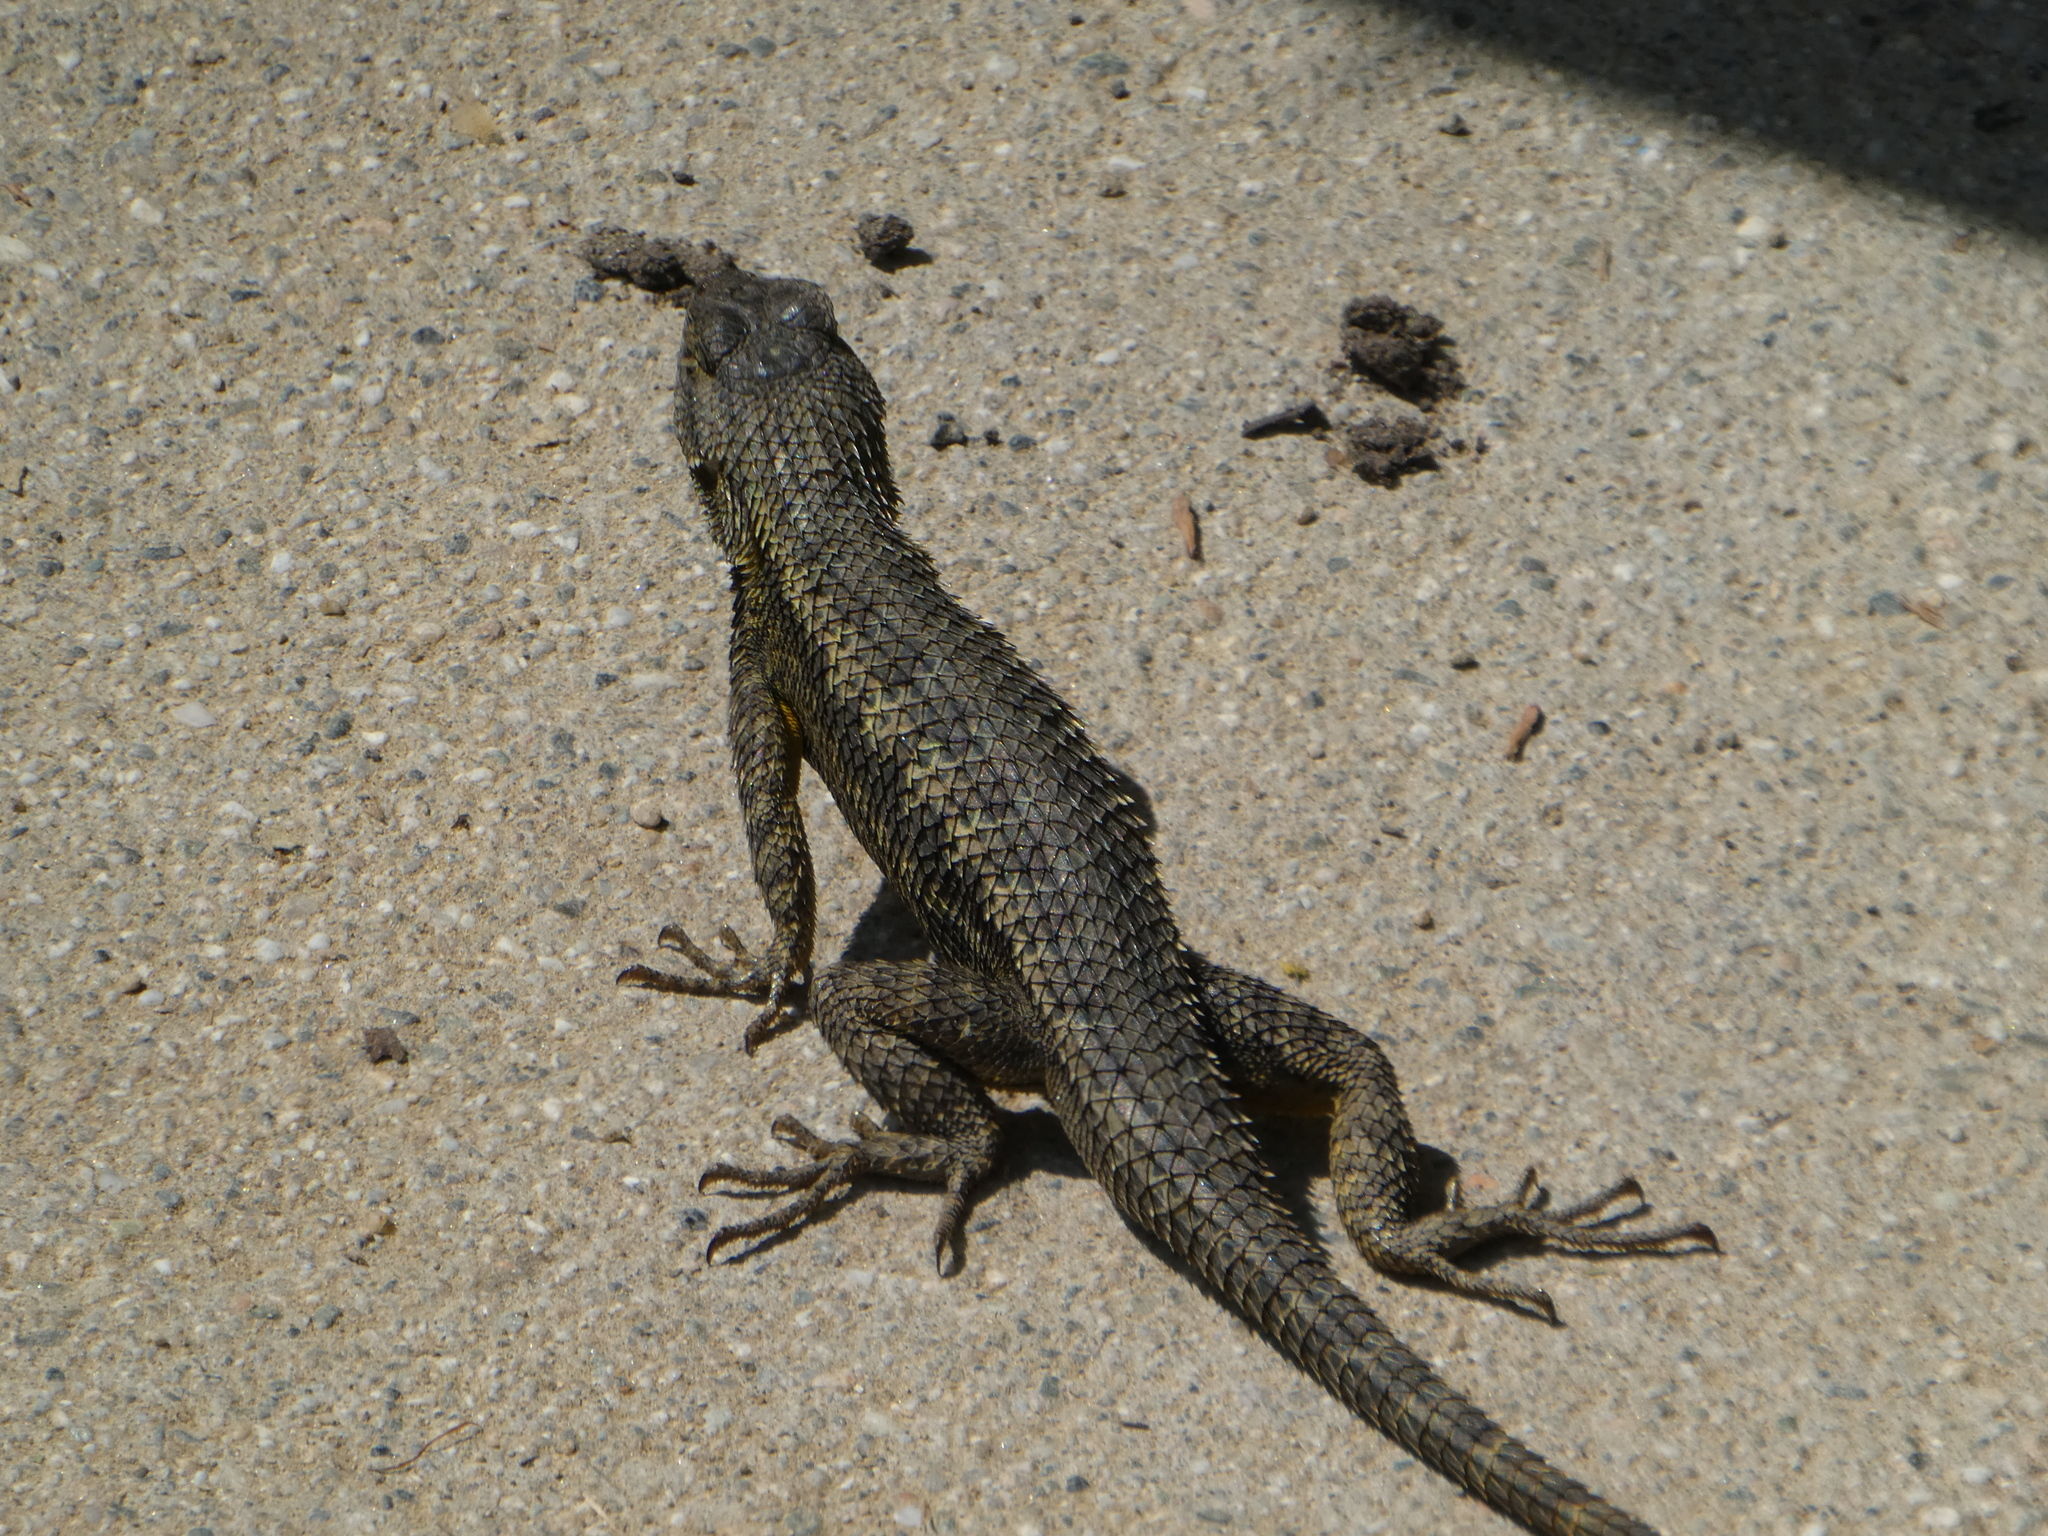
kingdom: Animalia
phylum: Chordata
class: Squamata
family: Phrynosomatidae
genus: Sceloporus
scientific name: Sceloporus occidentalis
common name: Western fence lizard
